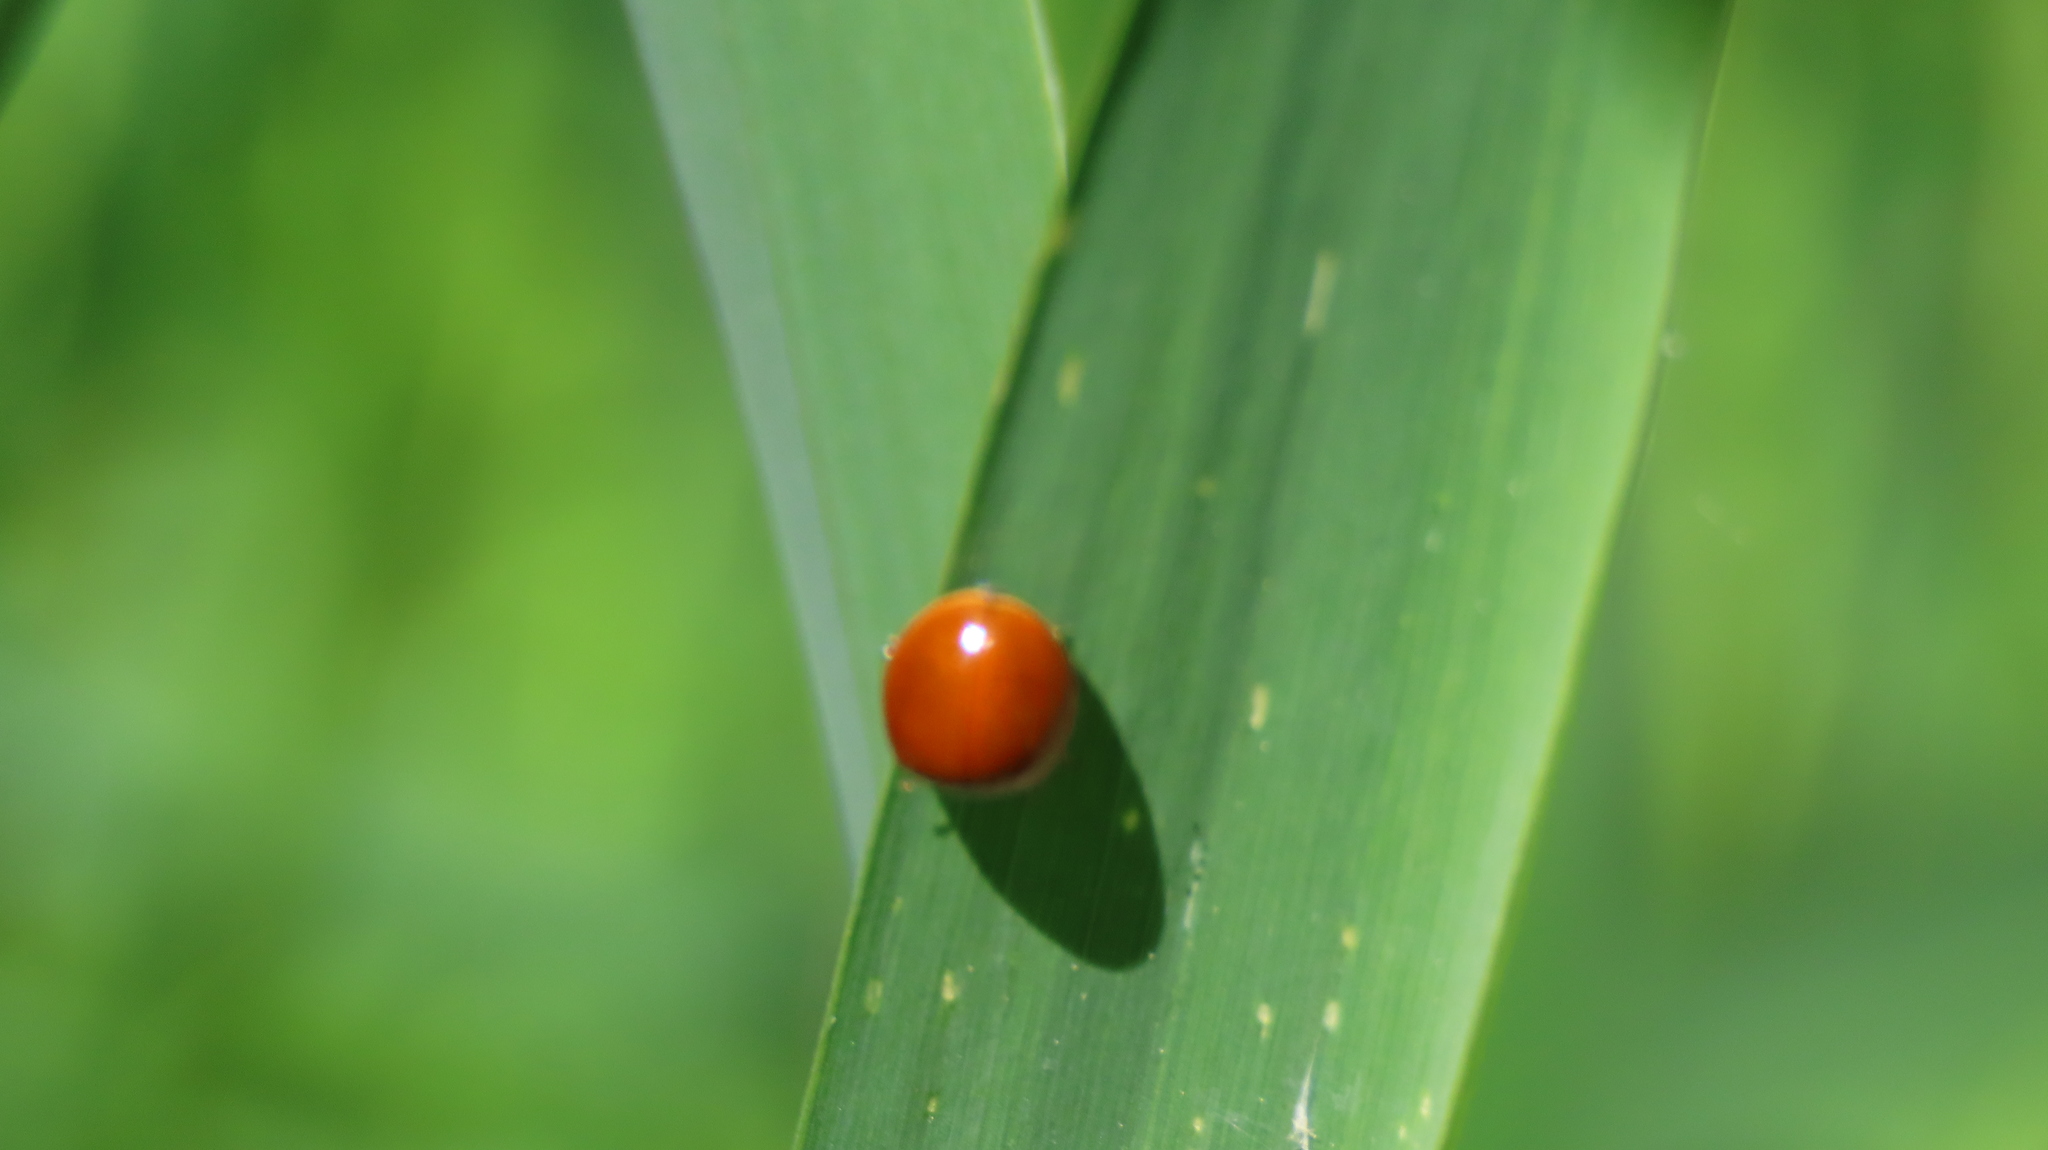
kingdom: Animalia
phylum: Arthropoda
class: Insecta
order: Coleoptera
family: Coccinellidae
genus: Harmonia
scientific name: Harmonia axyridis
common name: Harlequin ladybird
